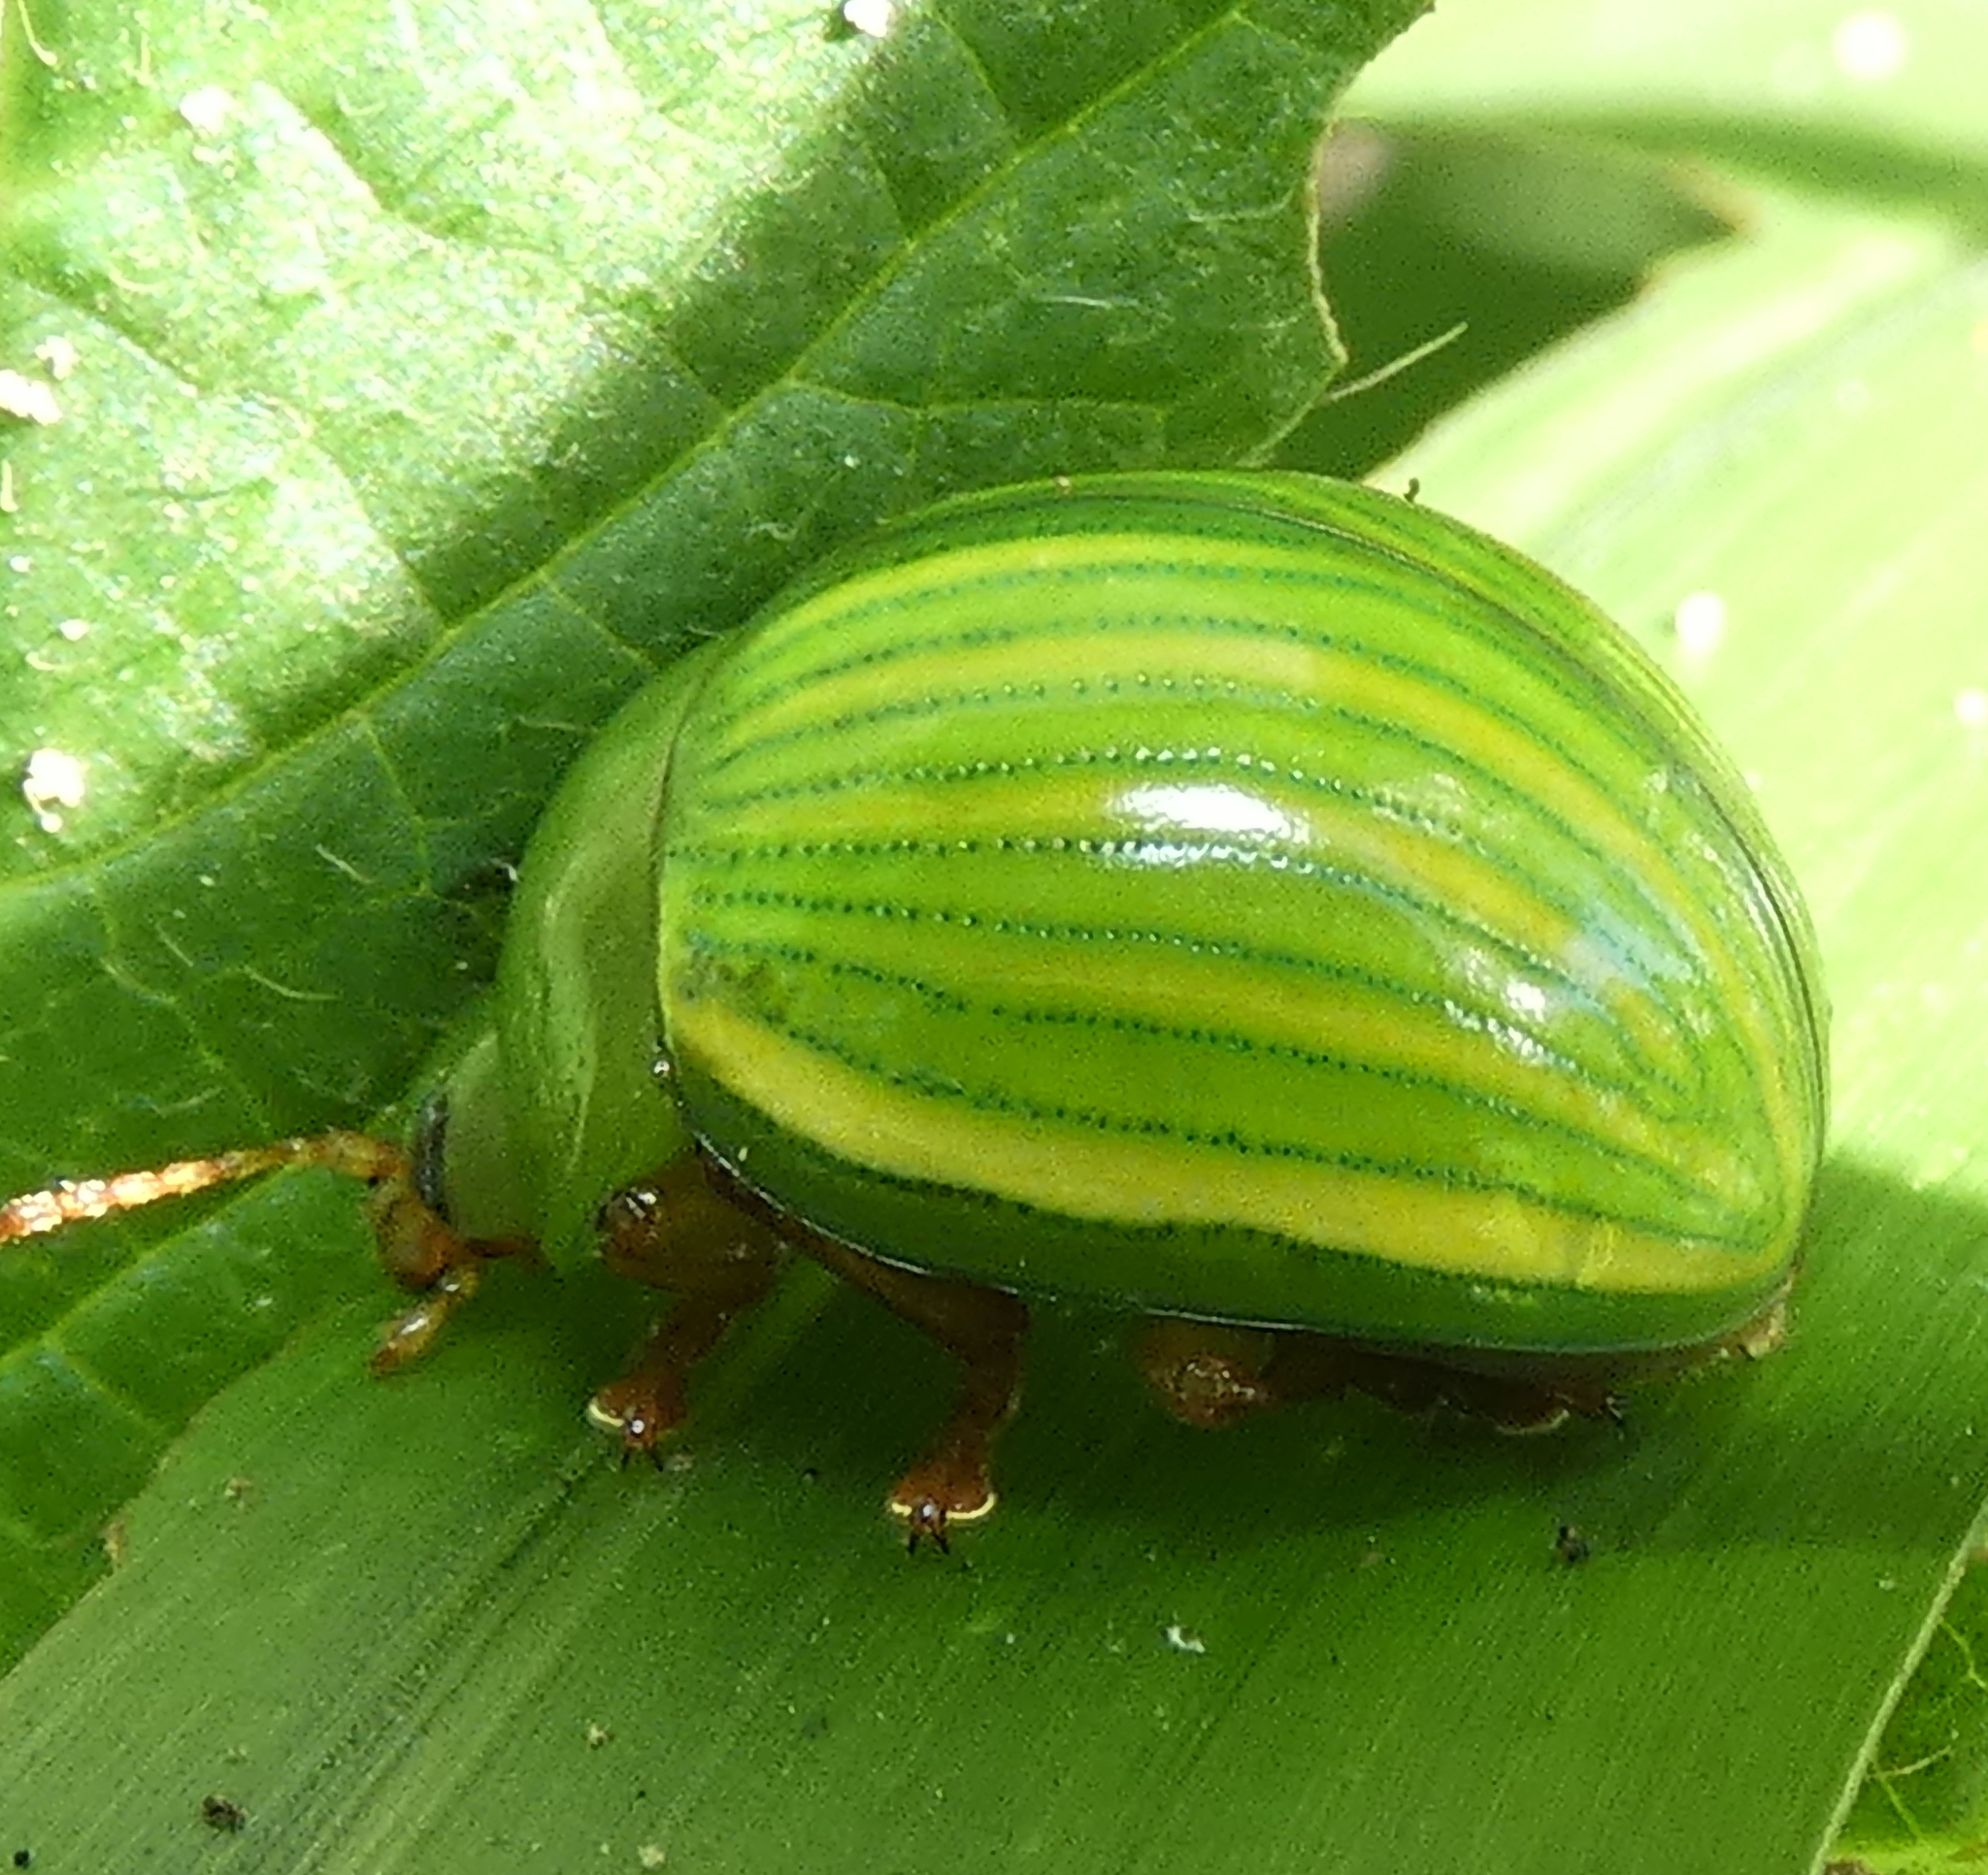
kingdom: Animalia
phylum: Arthropoda
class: Insecta
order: Coleoptera
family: Chrysomelidae
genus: Platyphora
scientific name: Platyphora
